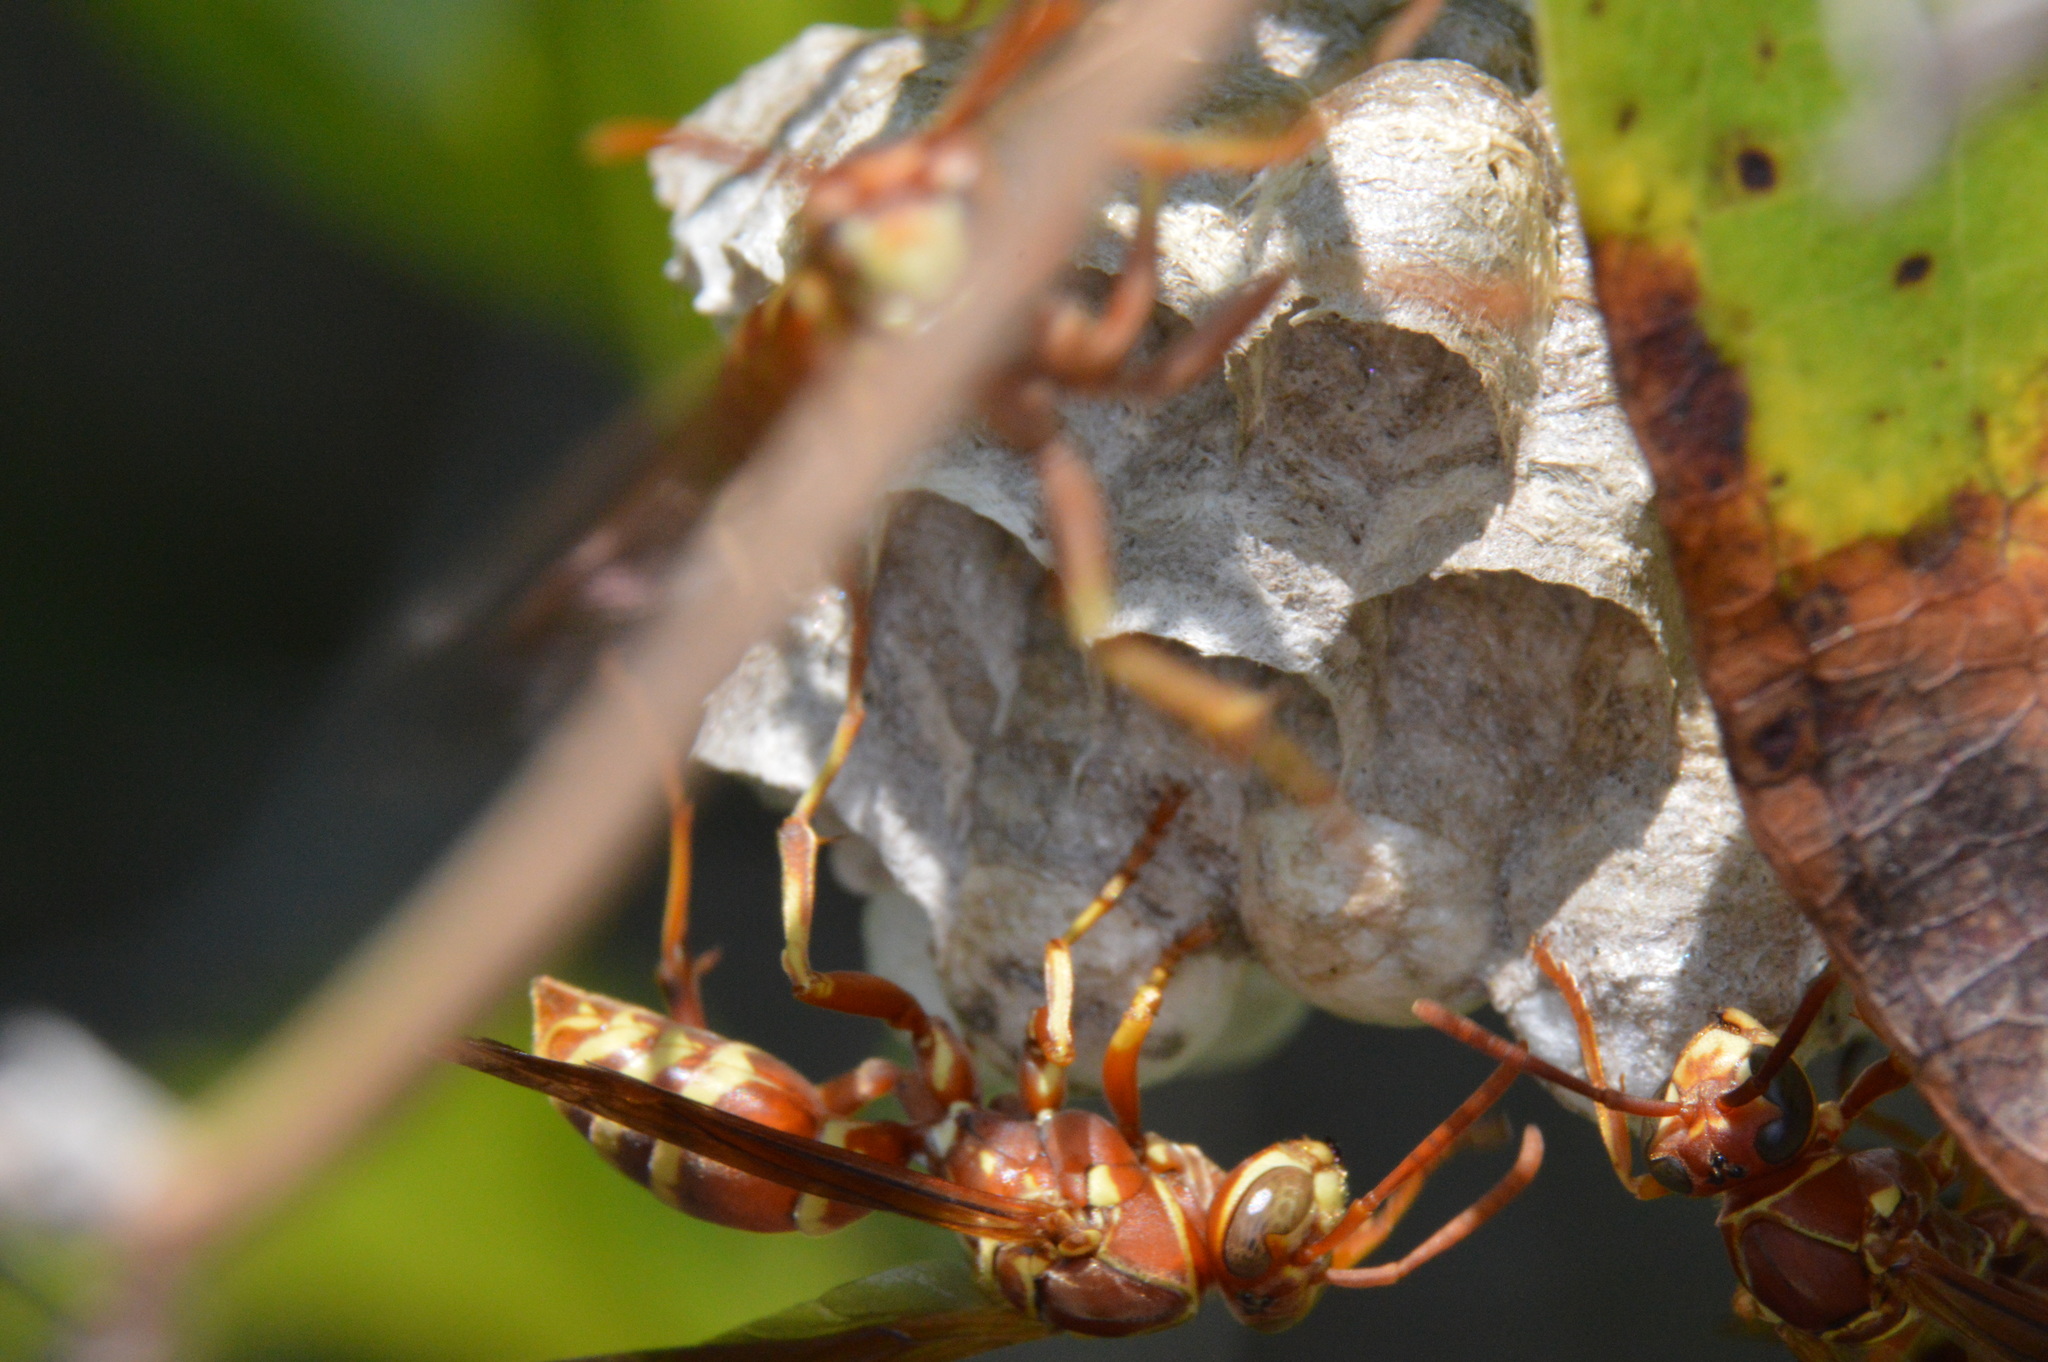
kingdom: Animalia
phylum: Arthropoda
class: Insecta
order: Hymenoptera
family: Eumenidae
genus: Polistes
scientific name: Polistes bellicosus
